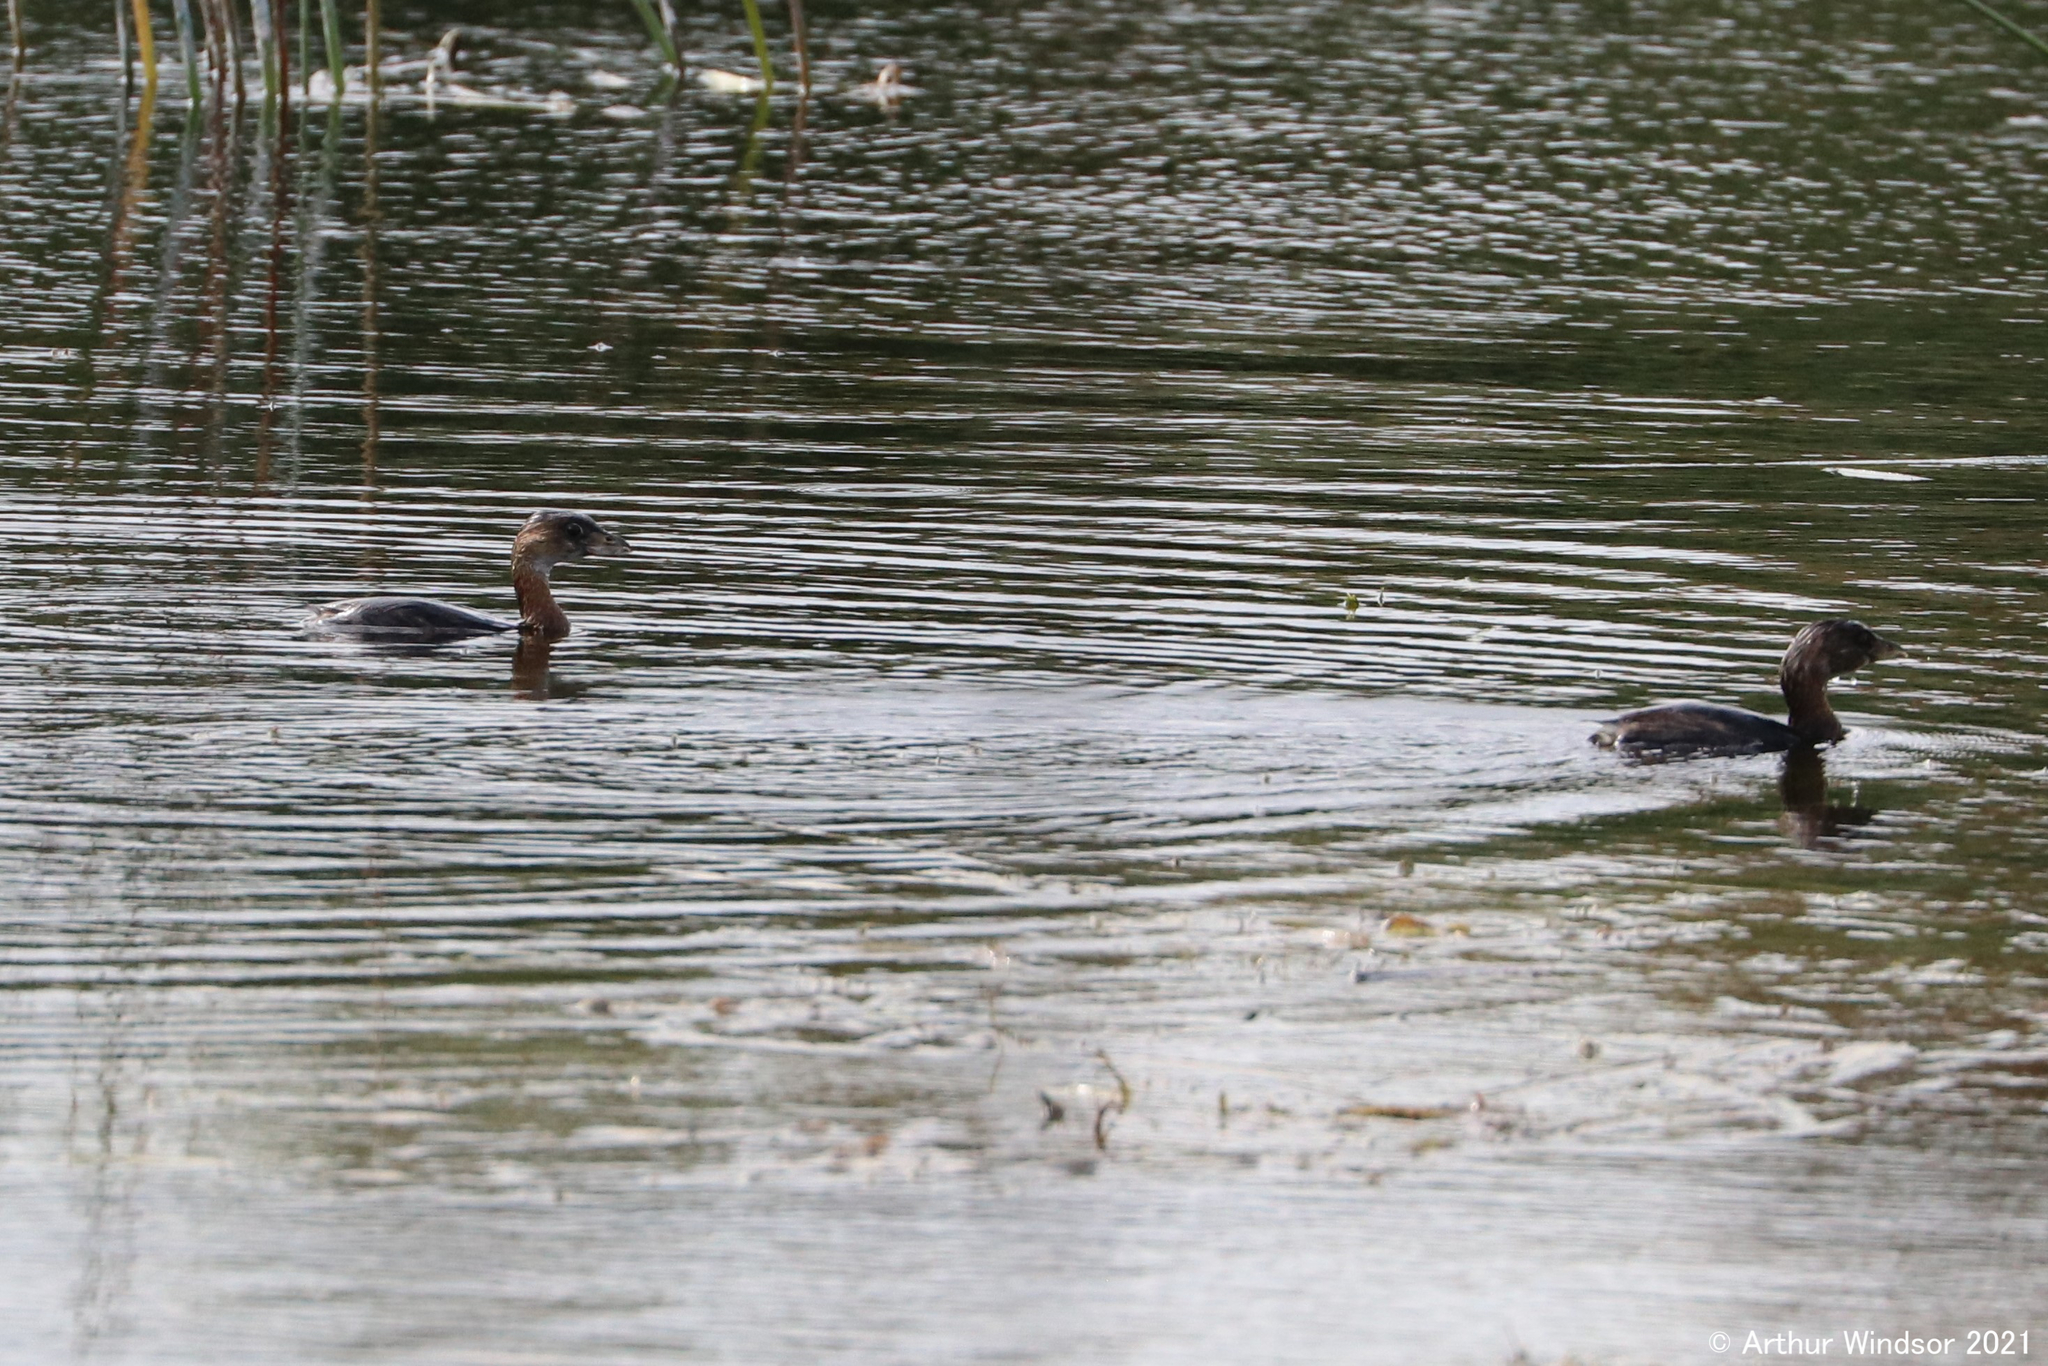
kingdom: Animalia
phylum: Chordata
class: Aves
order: Podicipediformes
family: Podicipedidae
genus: Podilymbus
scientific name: Podilymbus podiceps
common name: Pied-billed grebe
